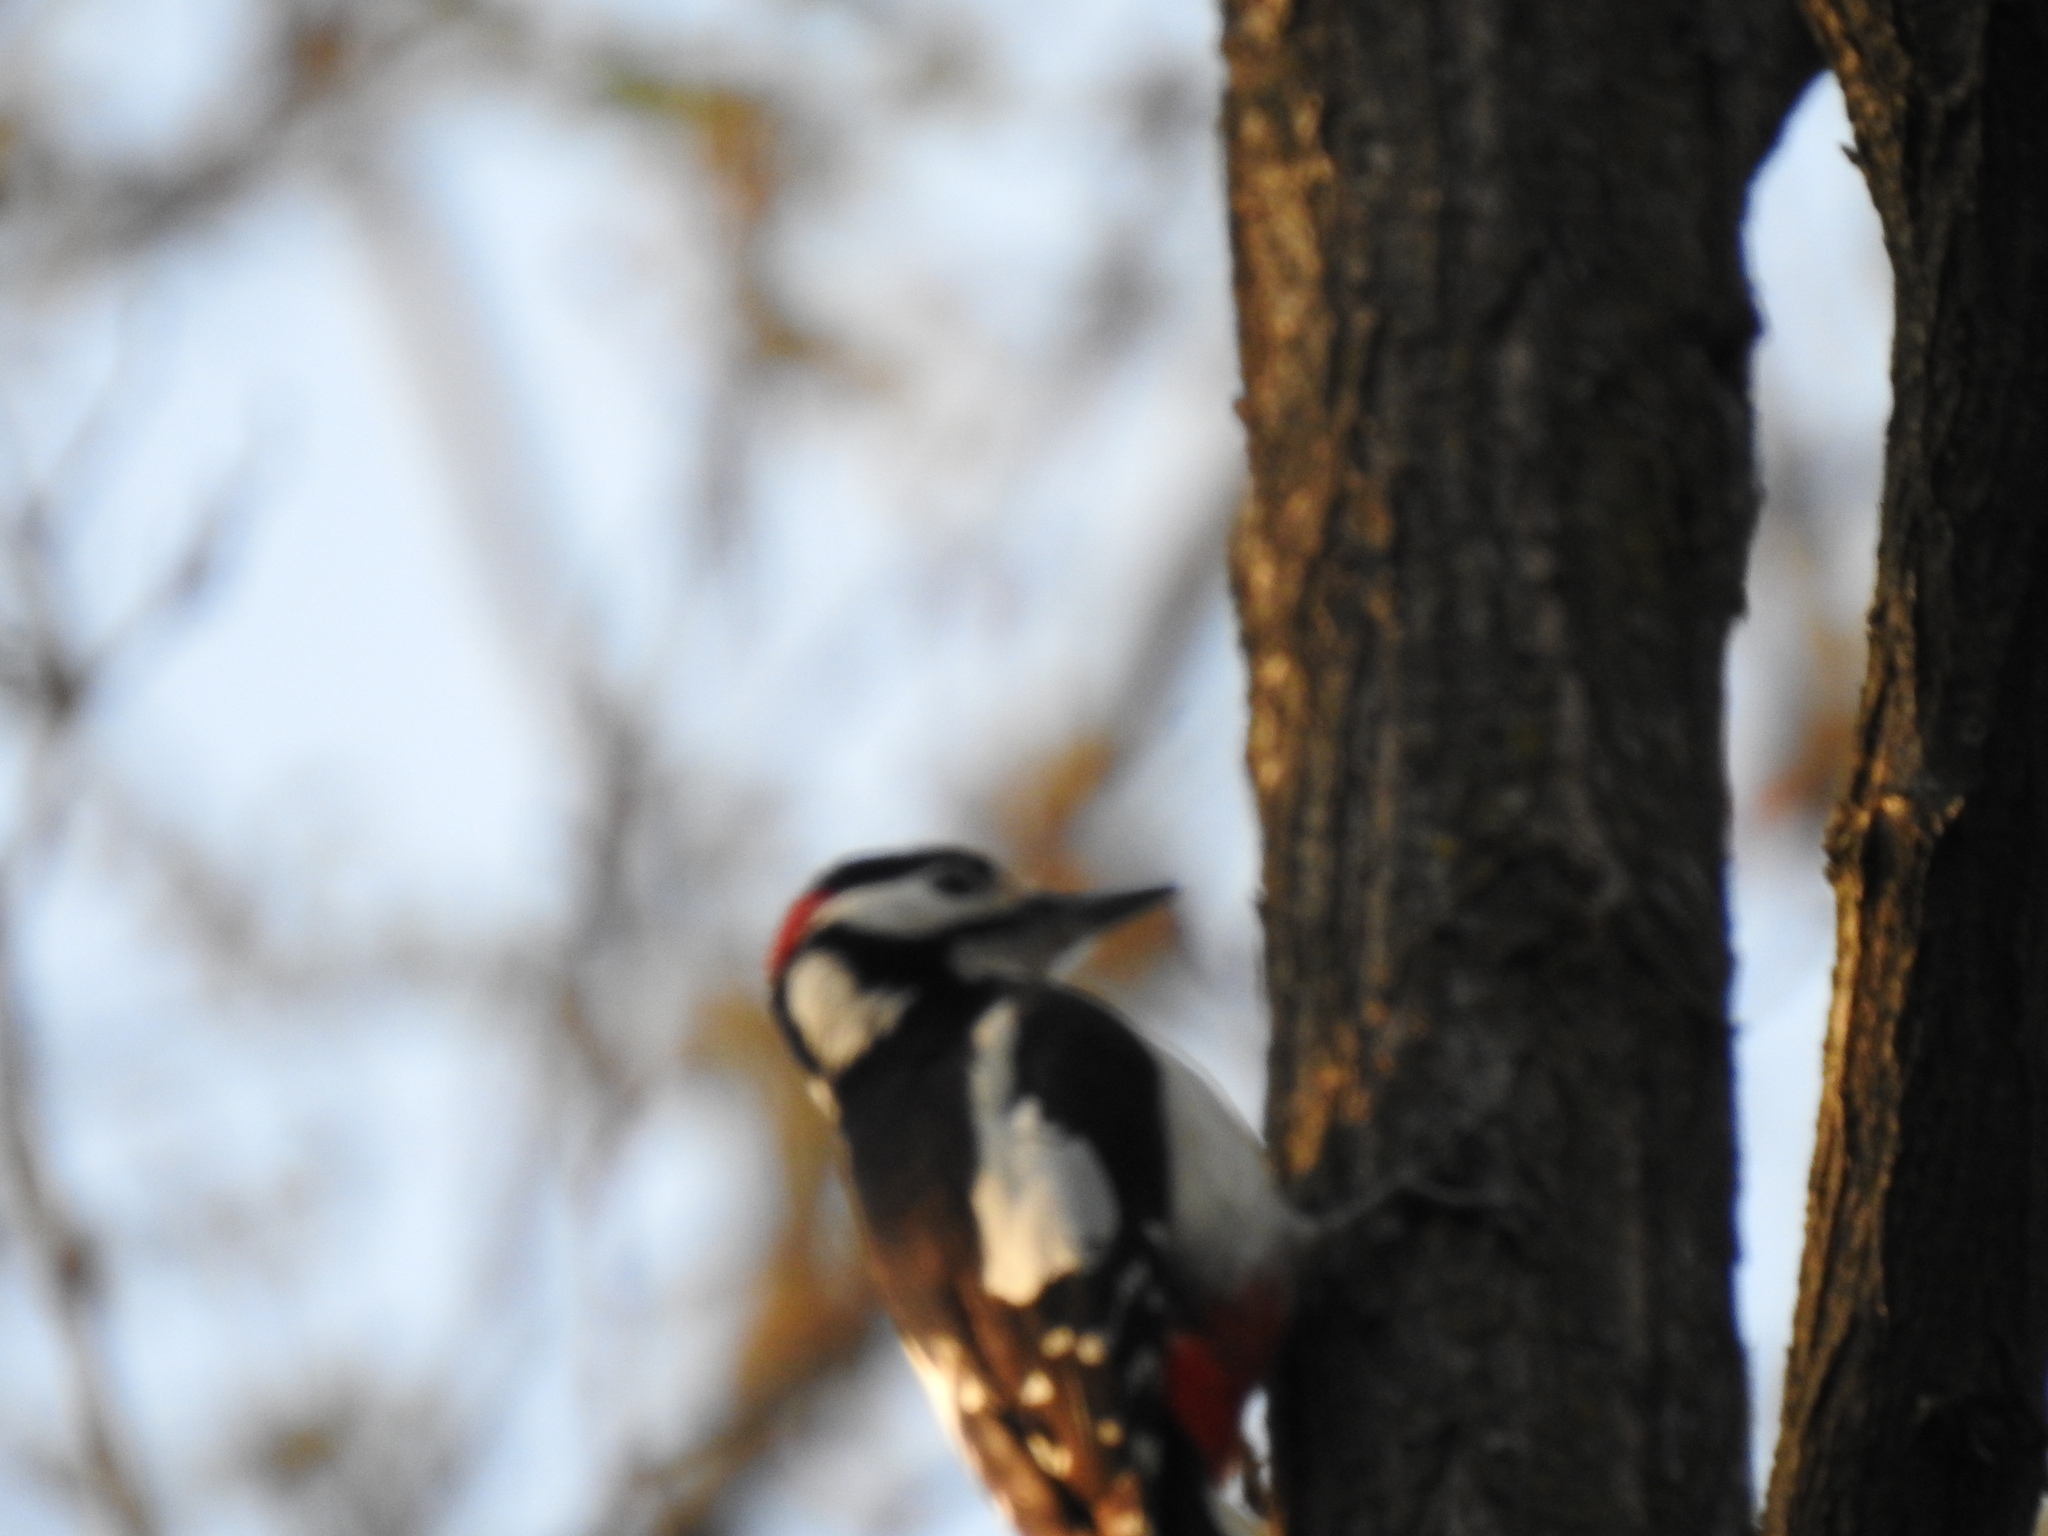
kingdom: Animalia
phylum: Chordata
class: Aves
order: Piciformes
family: Picidae
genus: Dendrocopos
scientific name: Dendrocopos major
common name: Great spotted woodpecker
